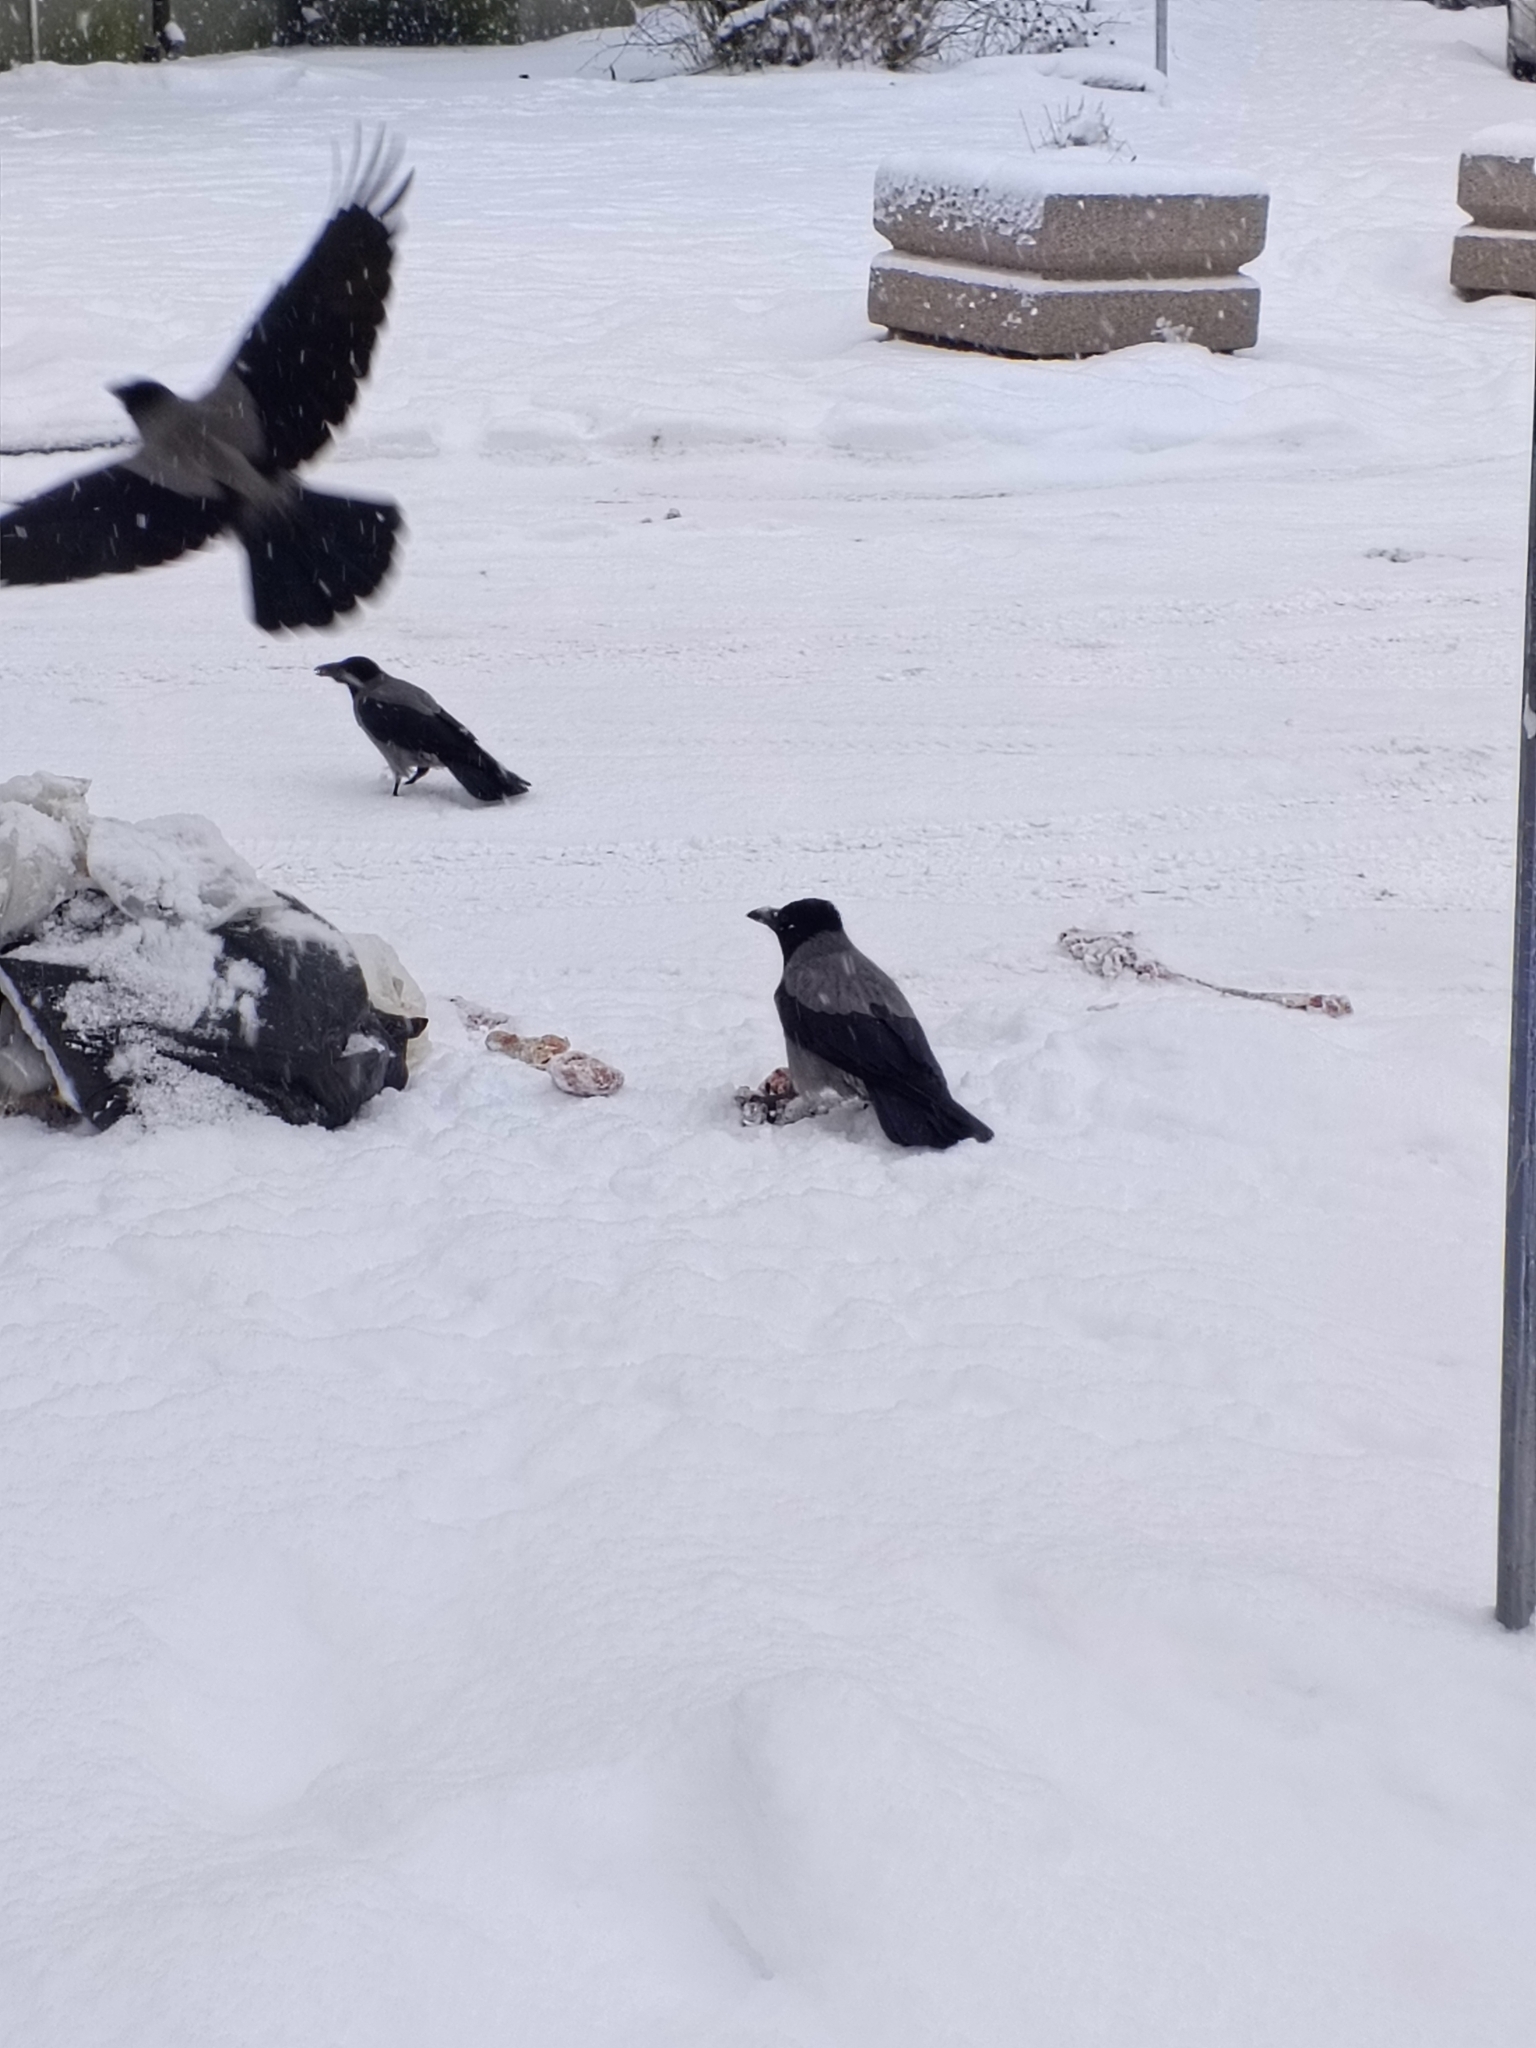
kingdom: Animalia
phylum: Chordata
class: Aves
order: Passeriformes
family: Corvidae
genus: Corvus
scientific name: Corvus cornix
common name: Hooded crow
